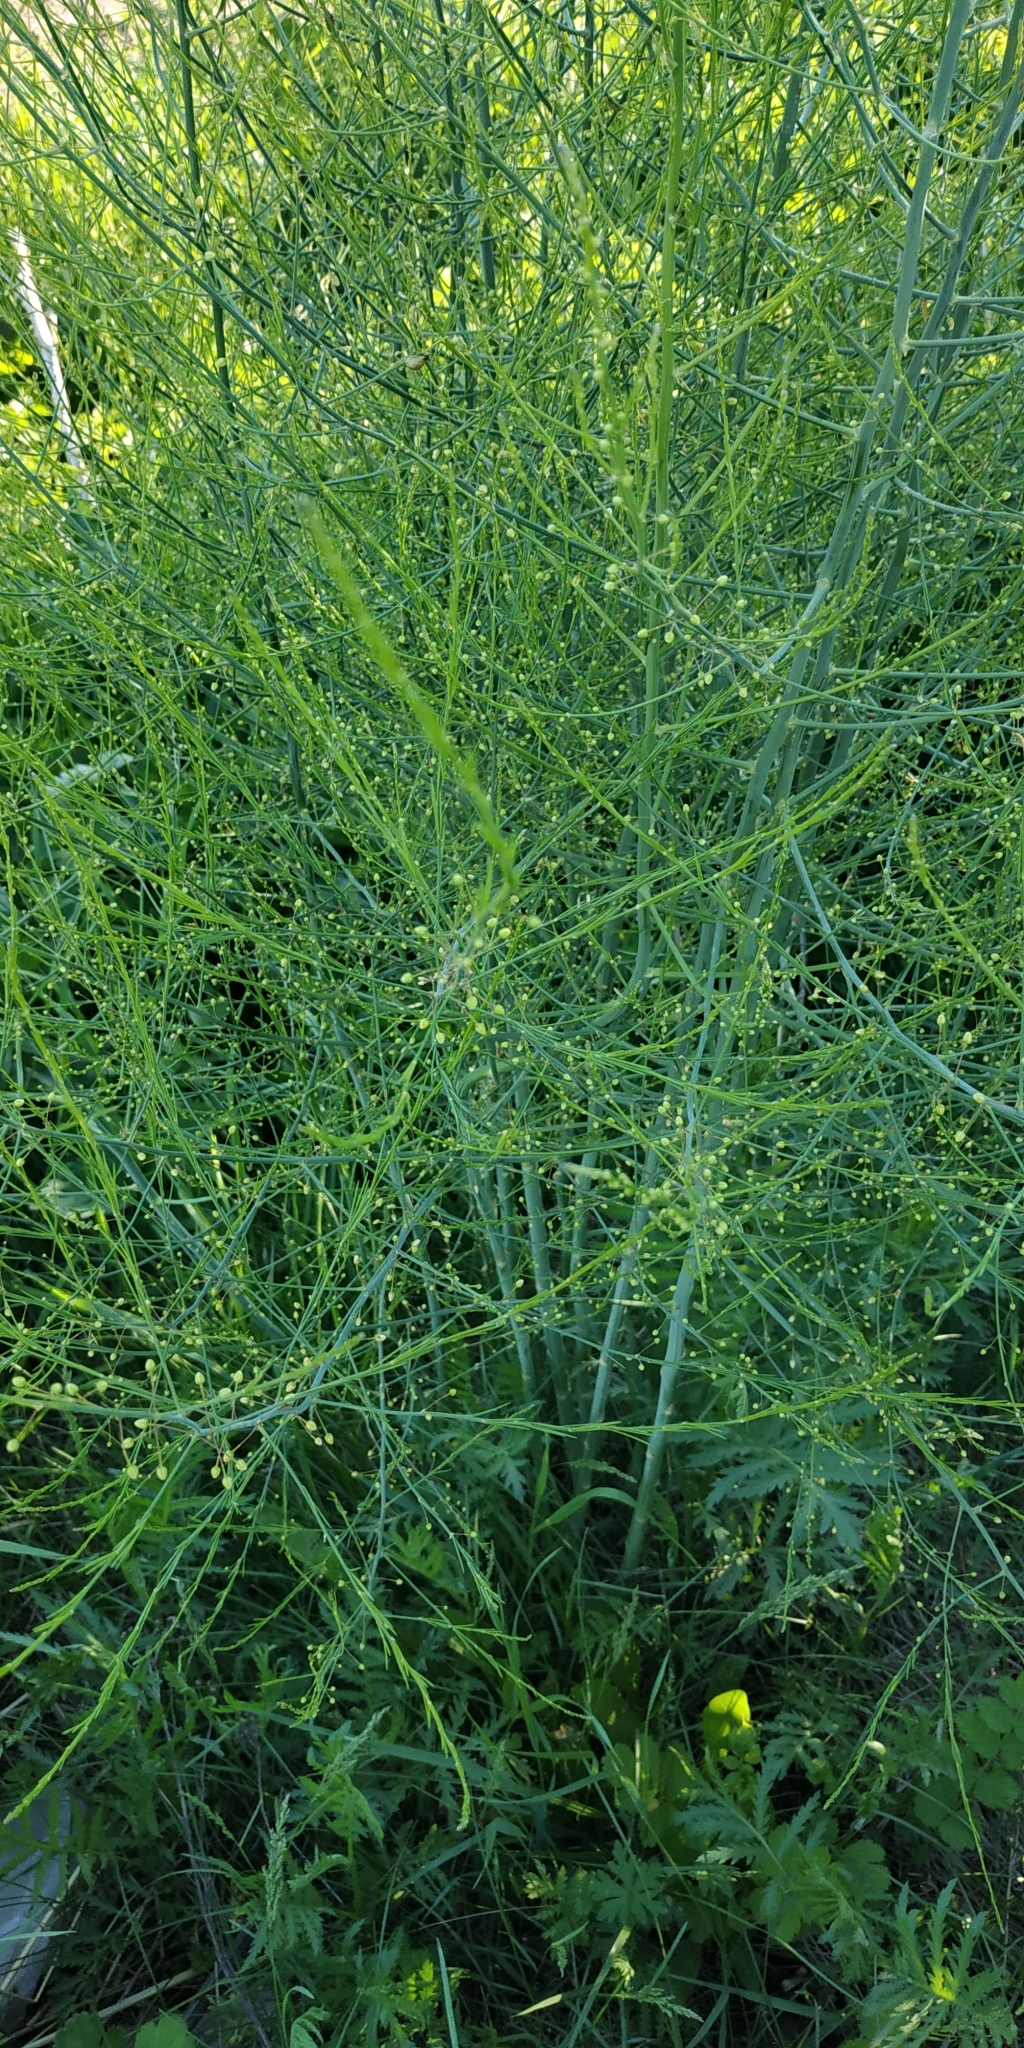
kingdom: Plantae
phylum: Tracheophyta
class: Liliopsida
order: Asparagales
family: Asparagaceae
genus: Asparagus
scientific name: Asparagus officinalis
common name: Garden asparagus
